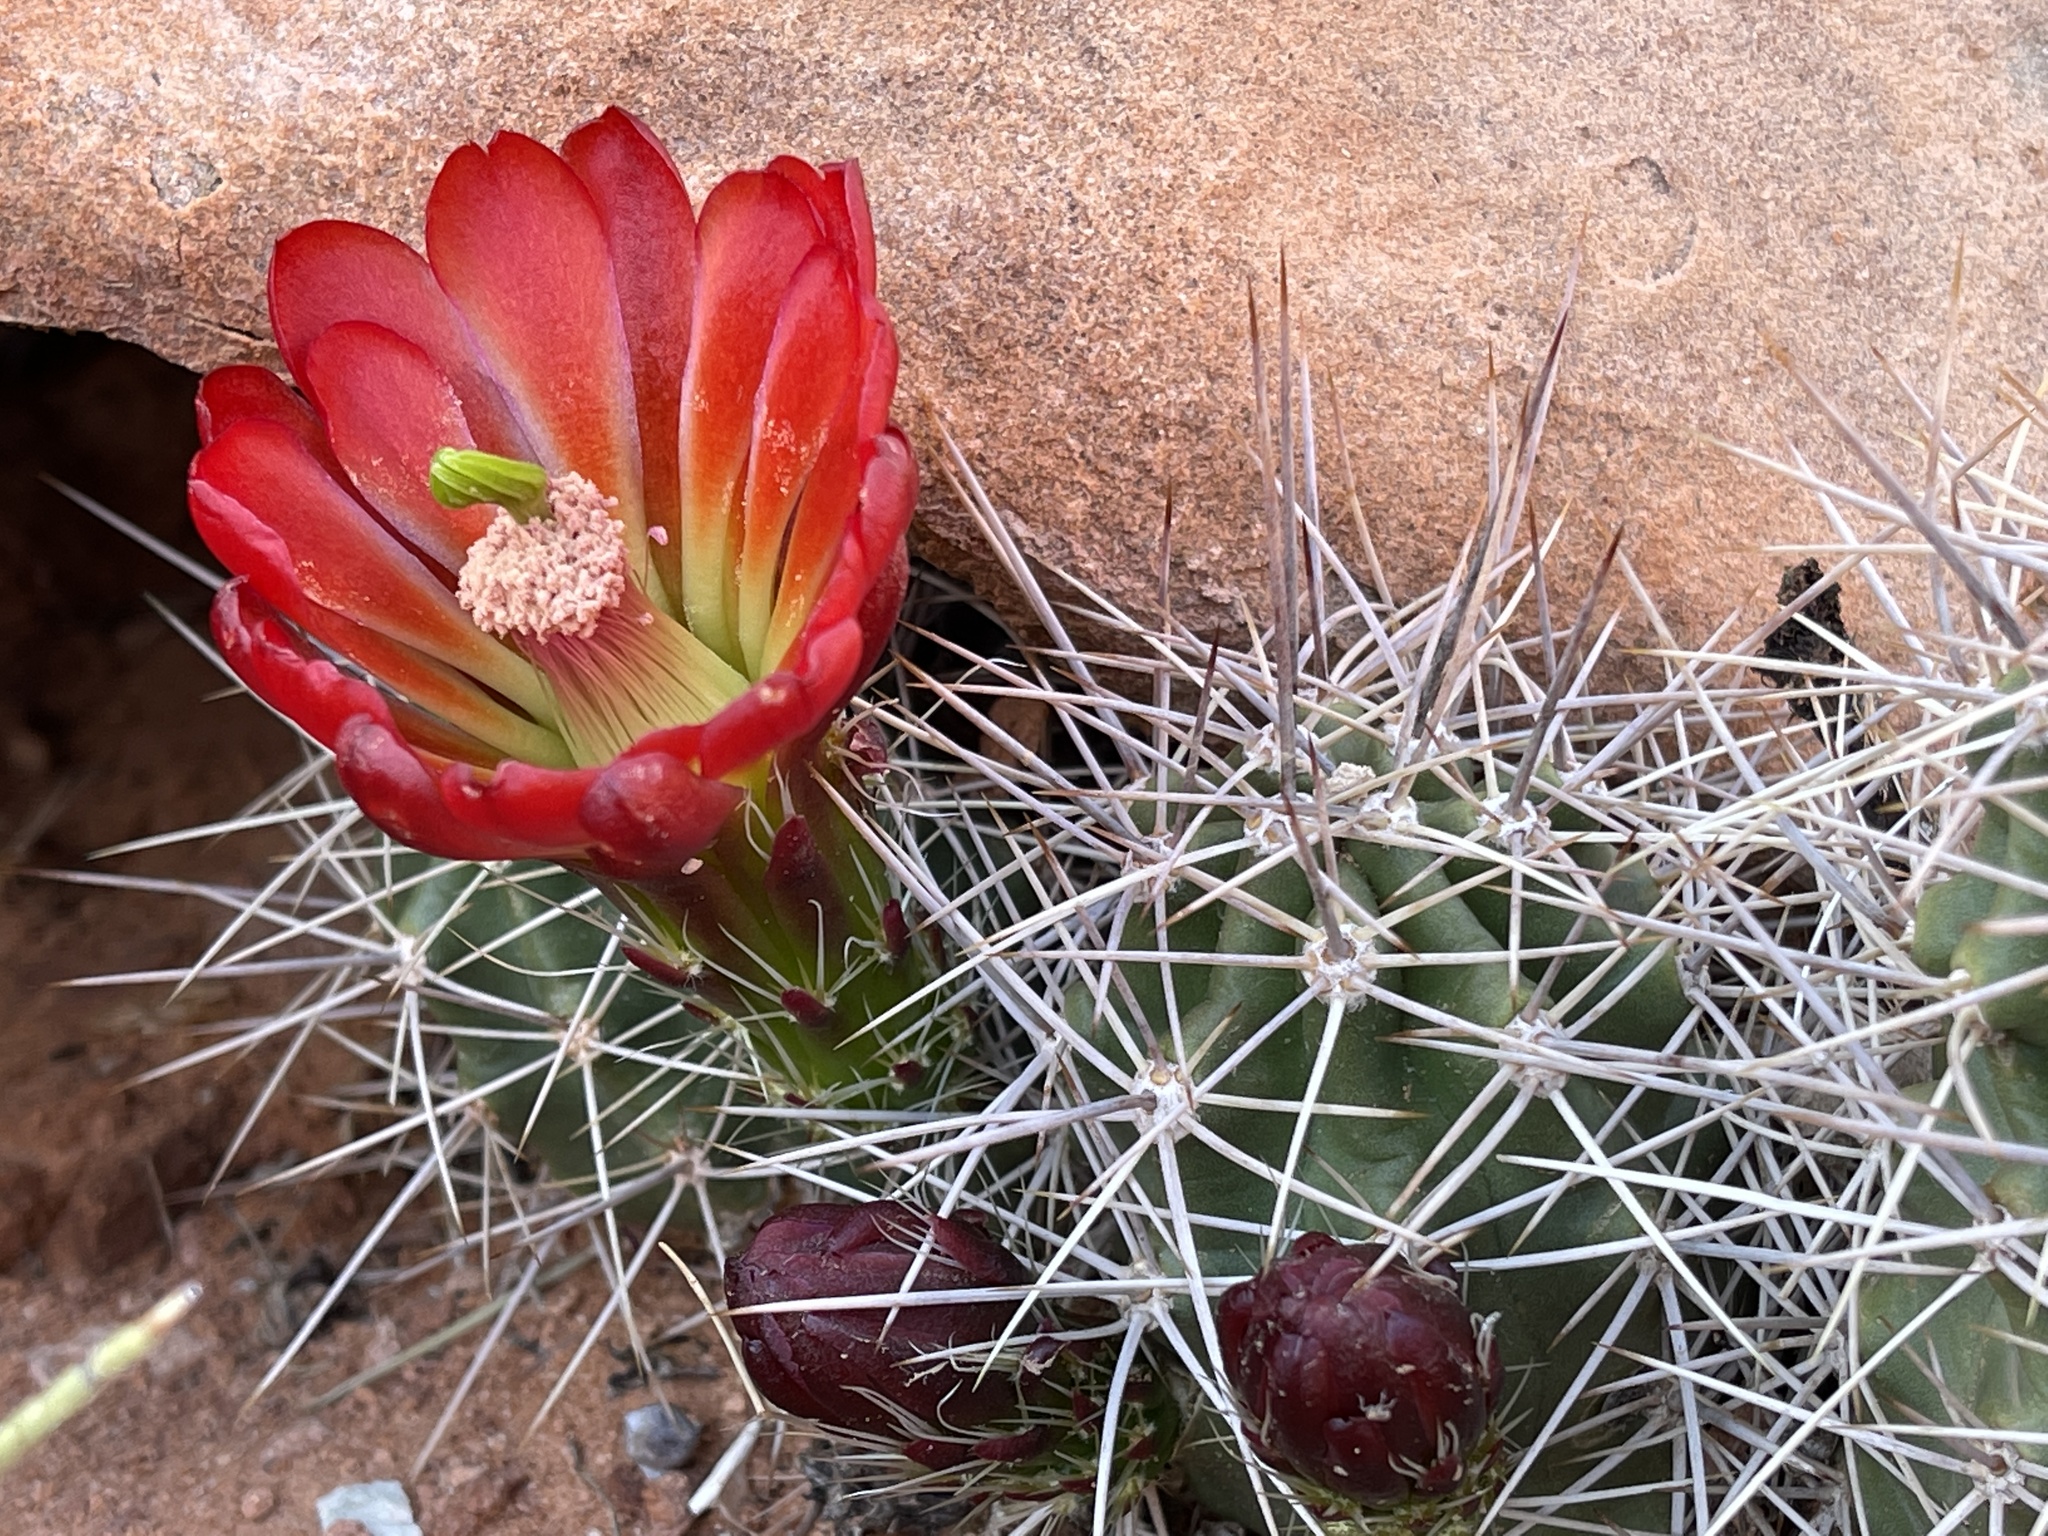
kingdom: Plantae
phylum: Tracheophyta
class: Magnoliopsida
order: Caryophyllales
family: Cactaceae
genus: Echinocereus
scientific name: Echinocereus triglochidiatus
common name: Claretcup hedgehog
